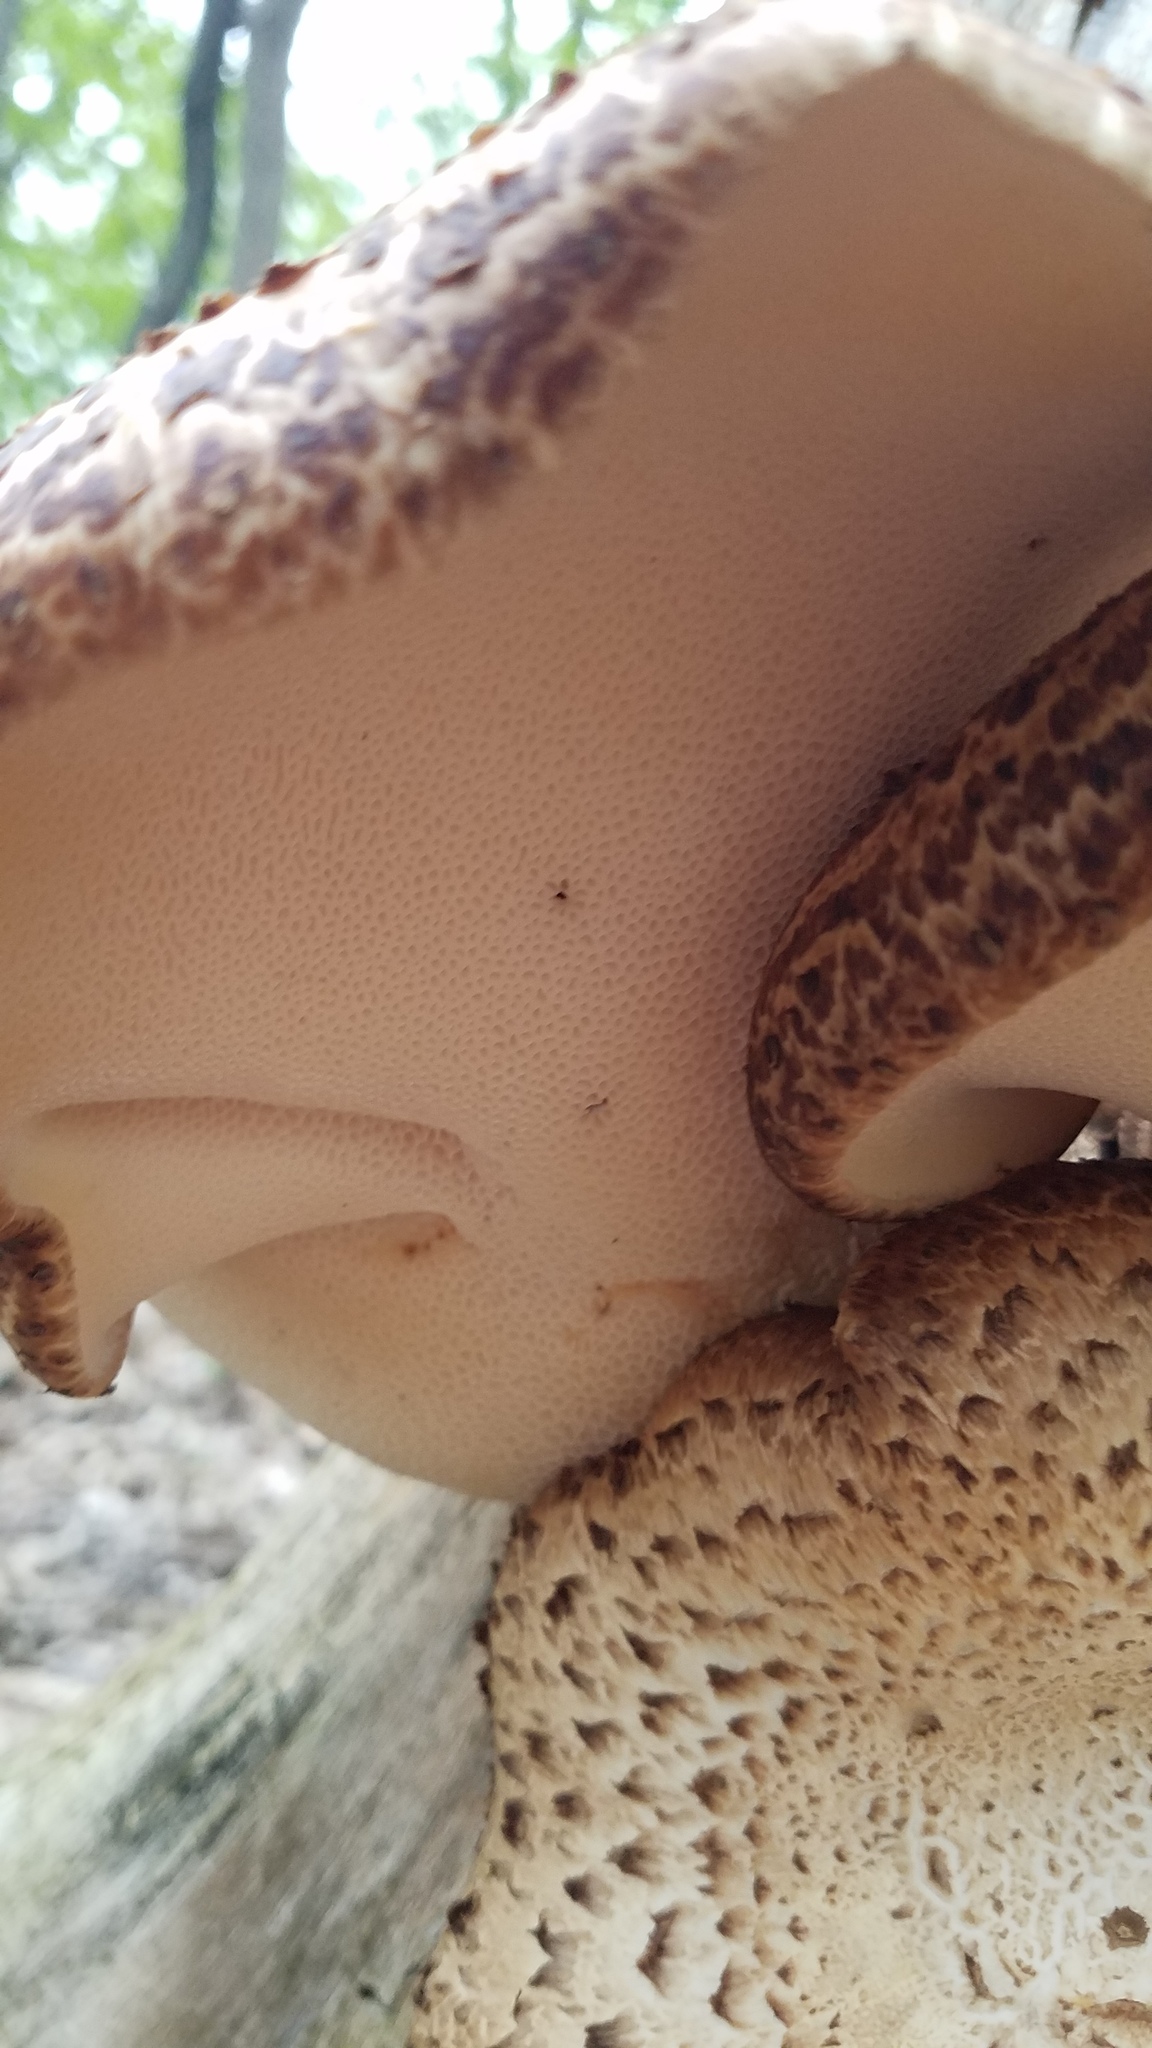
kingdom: Fungi
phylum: Basidiomycota
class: Agaricomycetes
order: Polyporales
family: Polyporaceae
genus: Cerioporus
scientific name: Cerioporus squamosus
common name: Dryad's saddle
